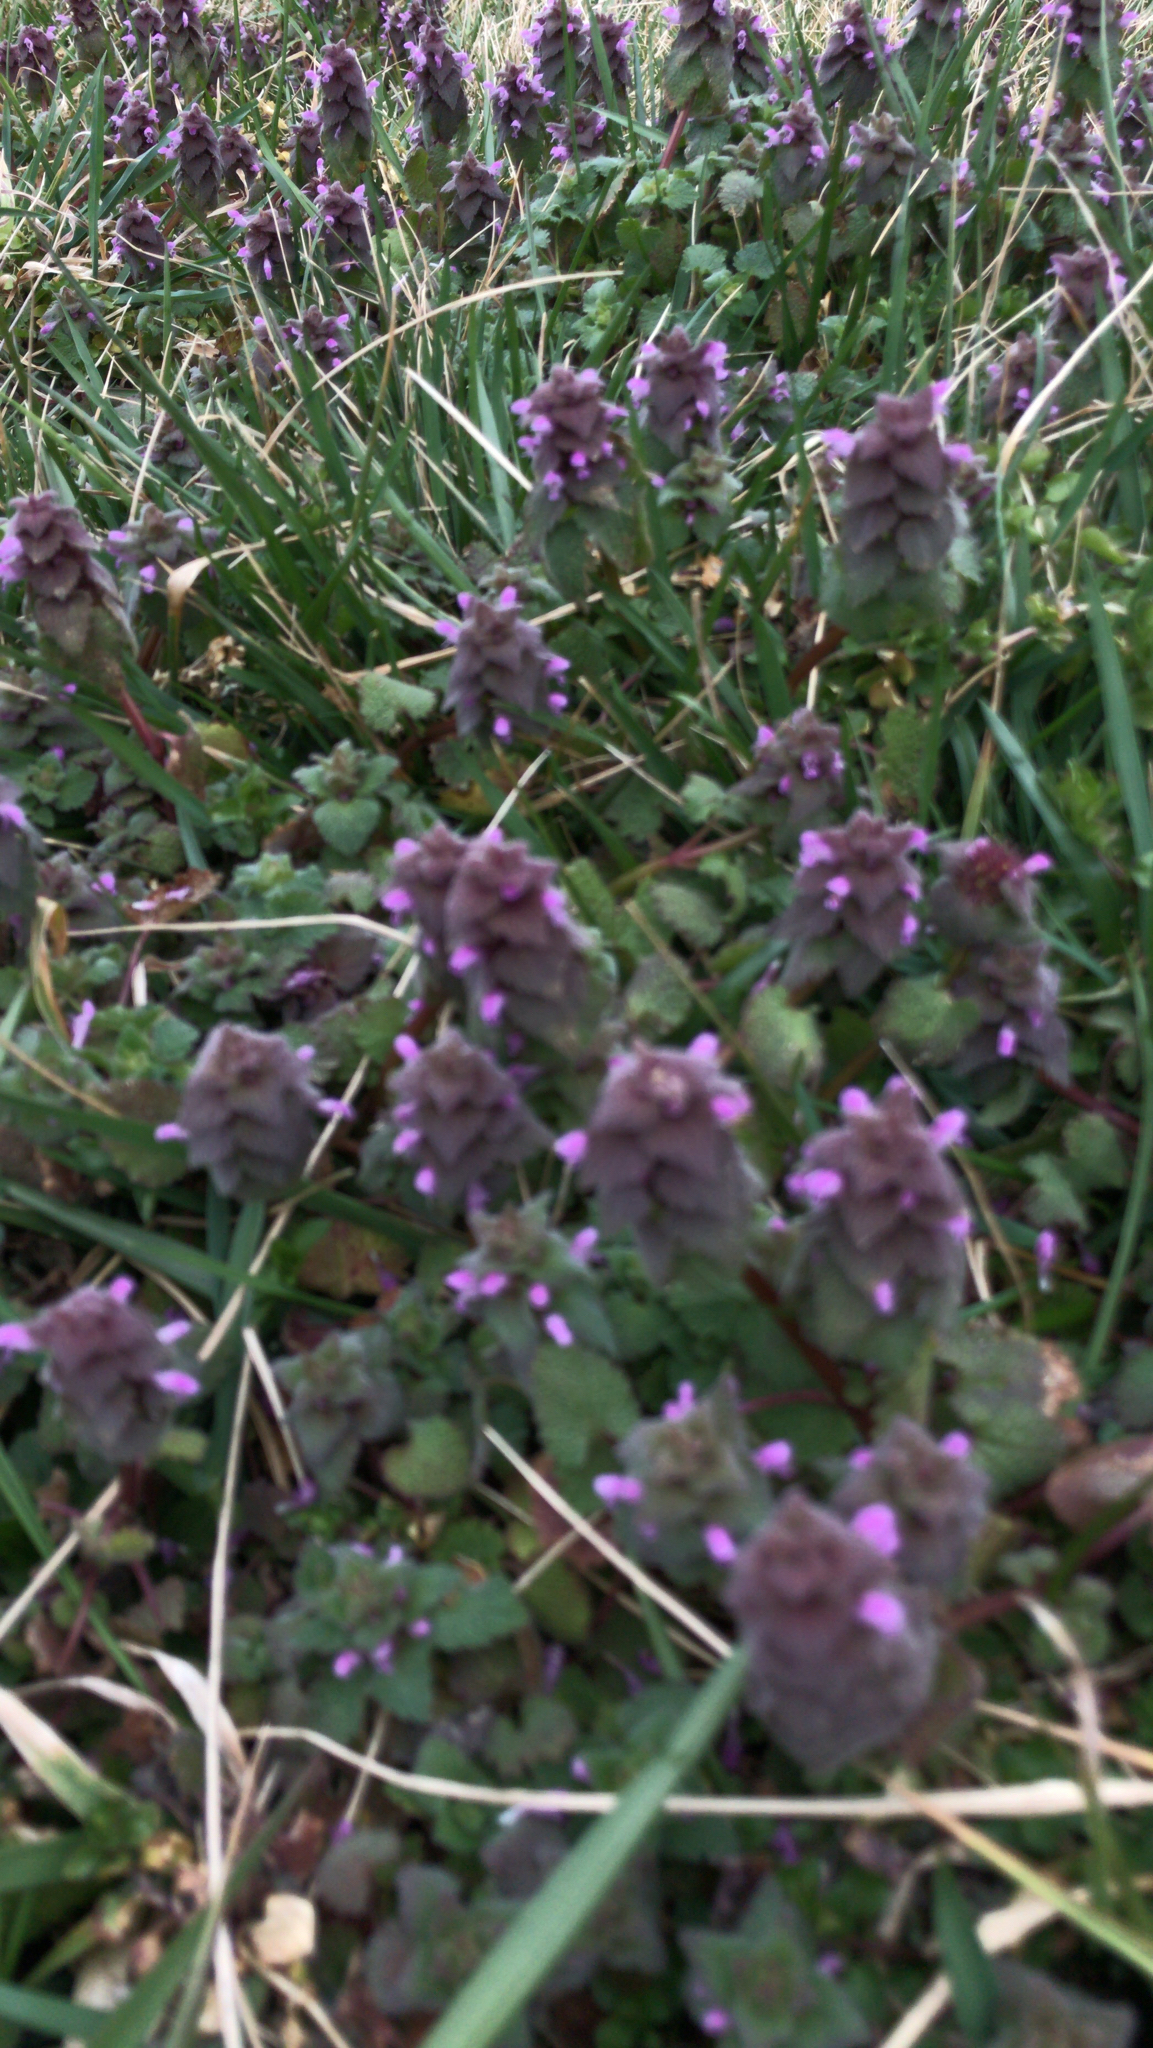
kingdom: Plantae
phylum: Tracheophyta
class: Magnoliopsida
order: Lamiales
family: Lamiaceae
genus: Lamium
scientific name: Lamium purpureum
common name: Red dead-nettle
